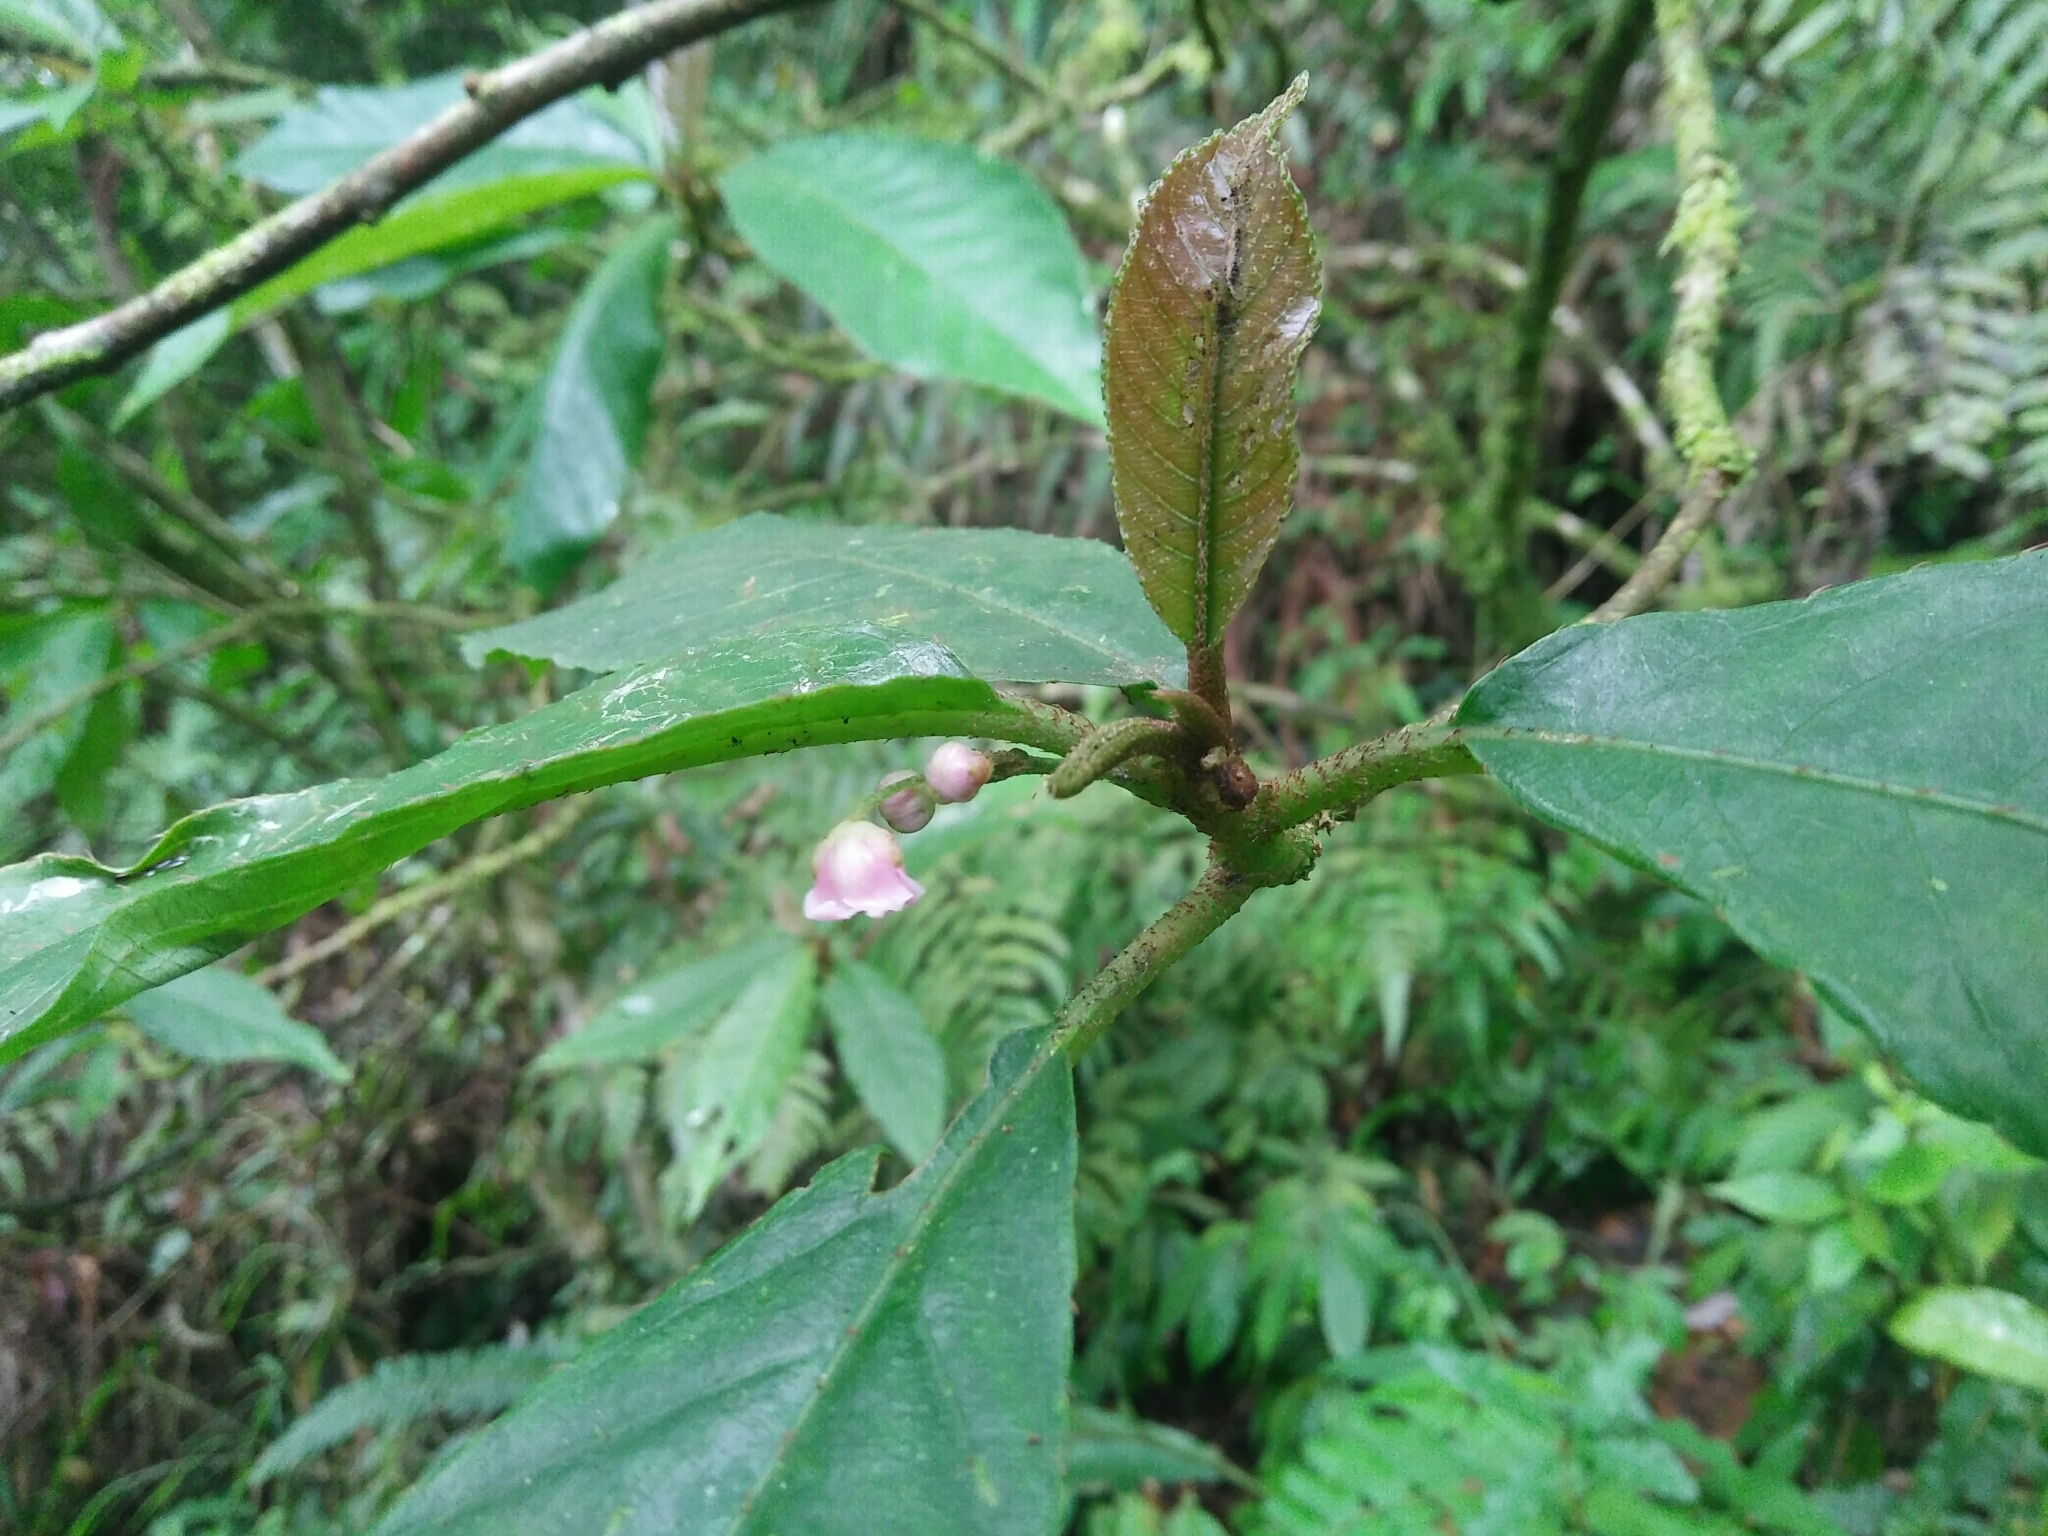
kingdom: Plantae
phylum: Tracheophyta
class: Magnoliopsida
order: Ericales
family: Actinidiaceae
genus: Saurauia
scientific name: Saurauia tristyla
